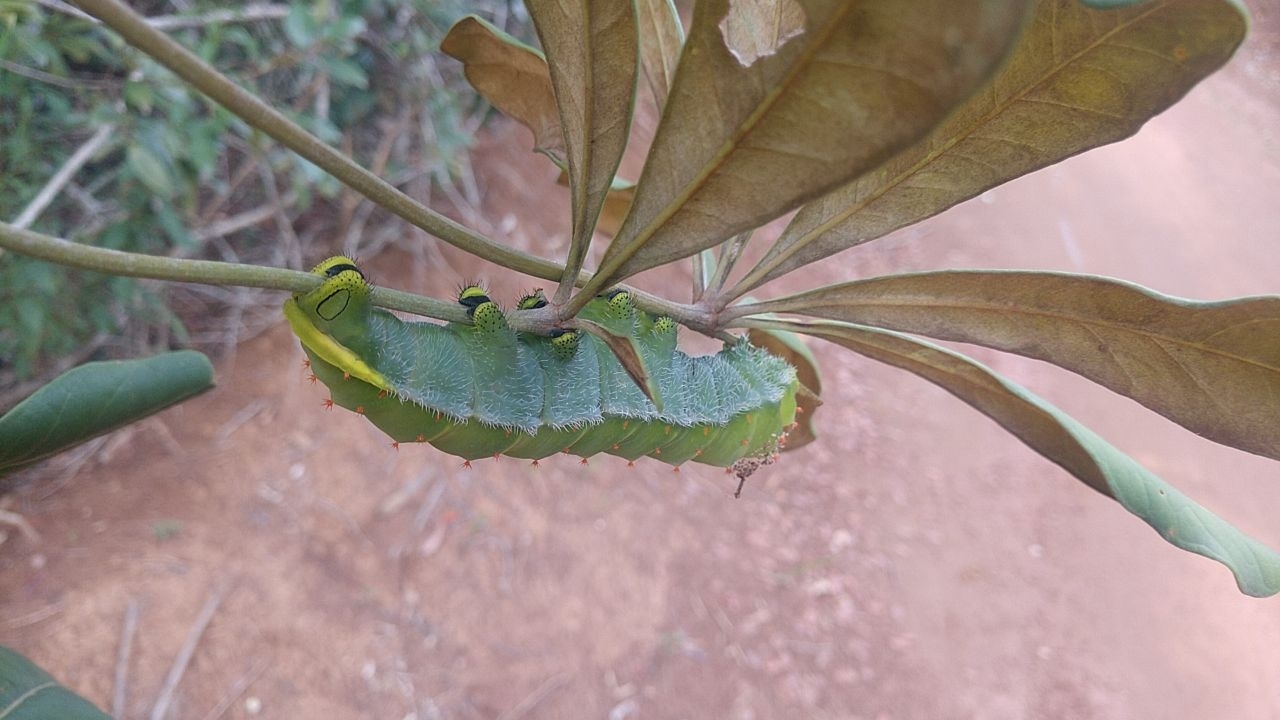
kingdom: Animalia
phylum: Arthropoda
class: Insecta
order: Lepidoptera
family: Saturniidae
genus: Rothschildia
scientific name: Rothschildia speculifer
